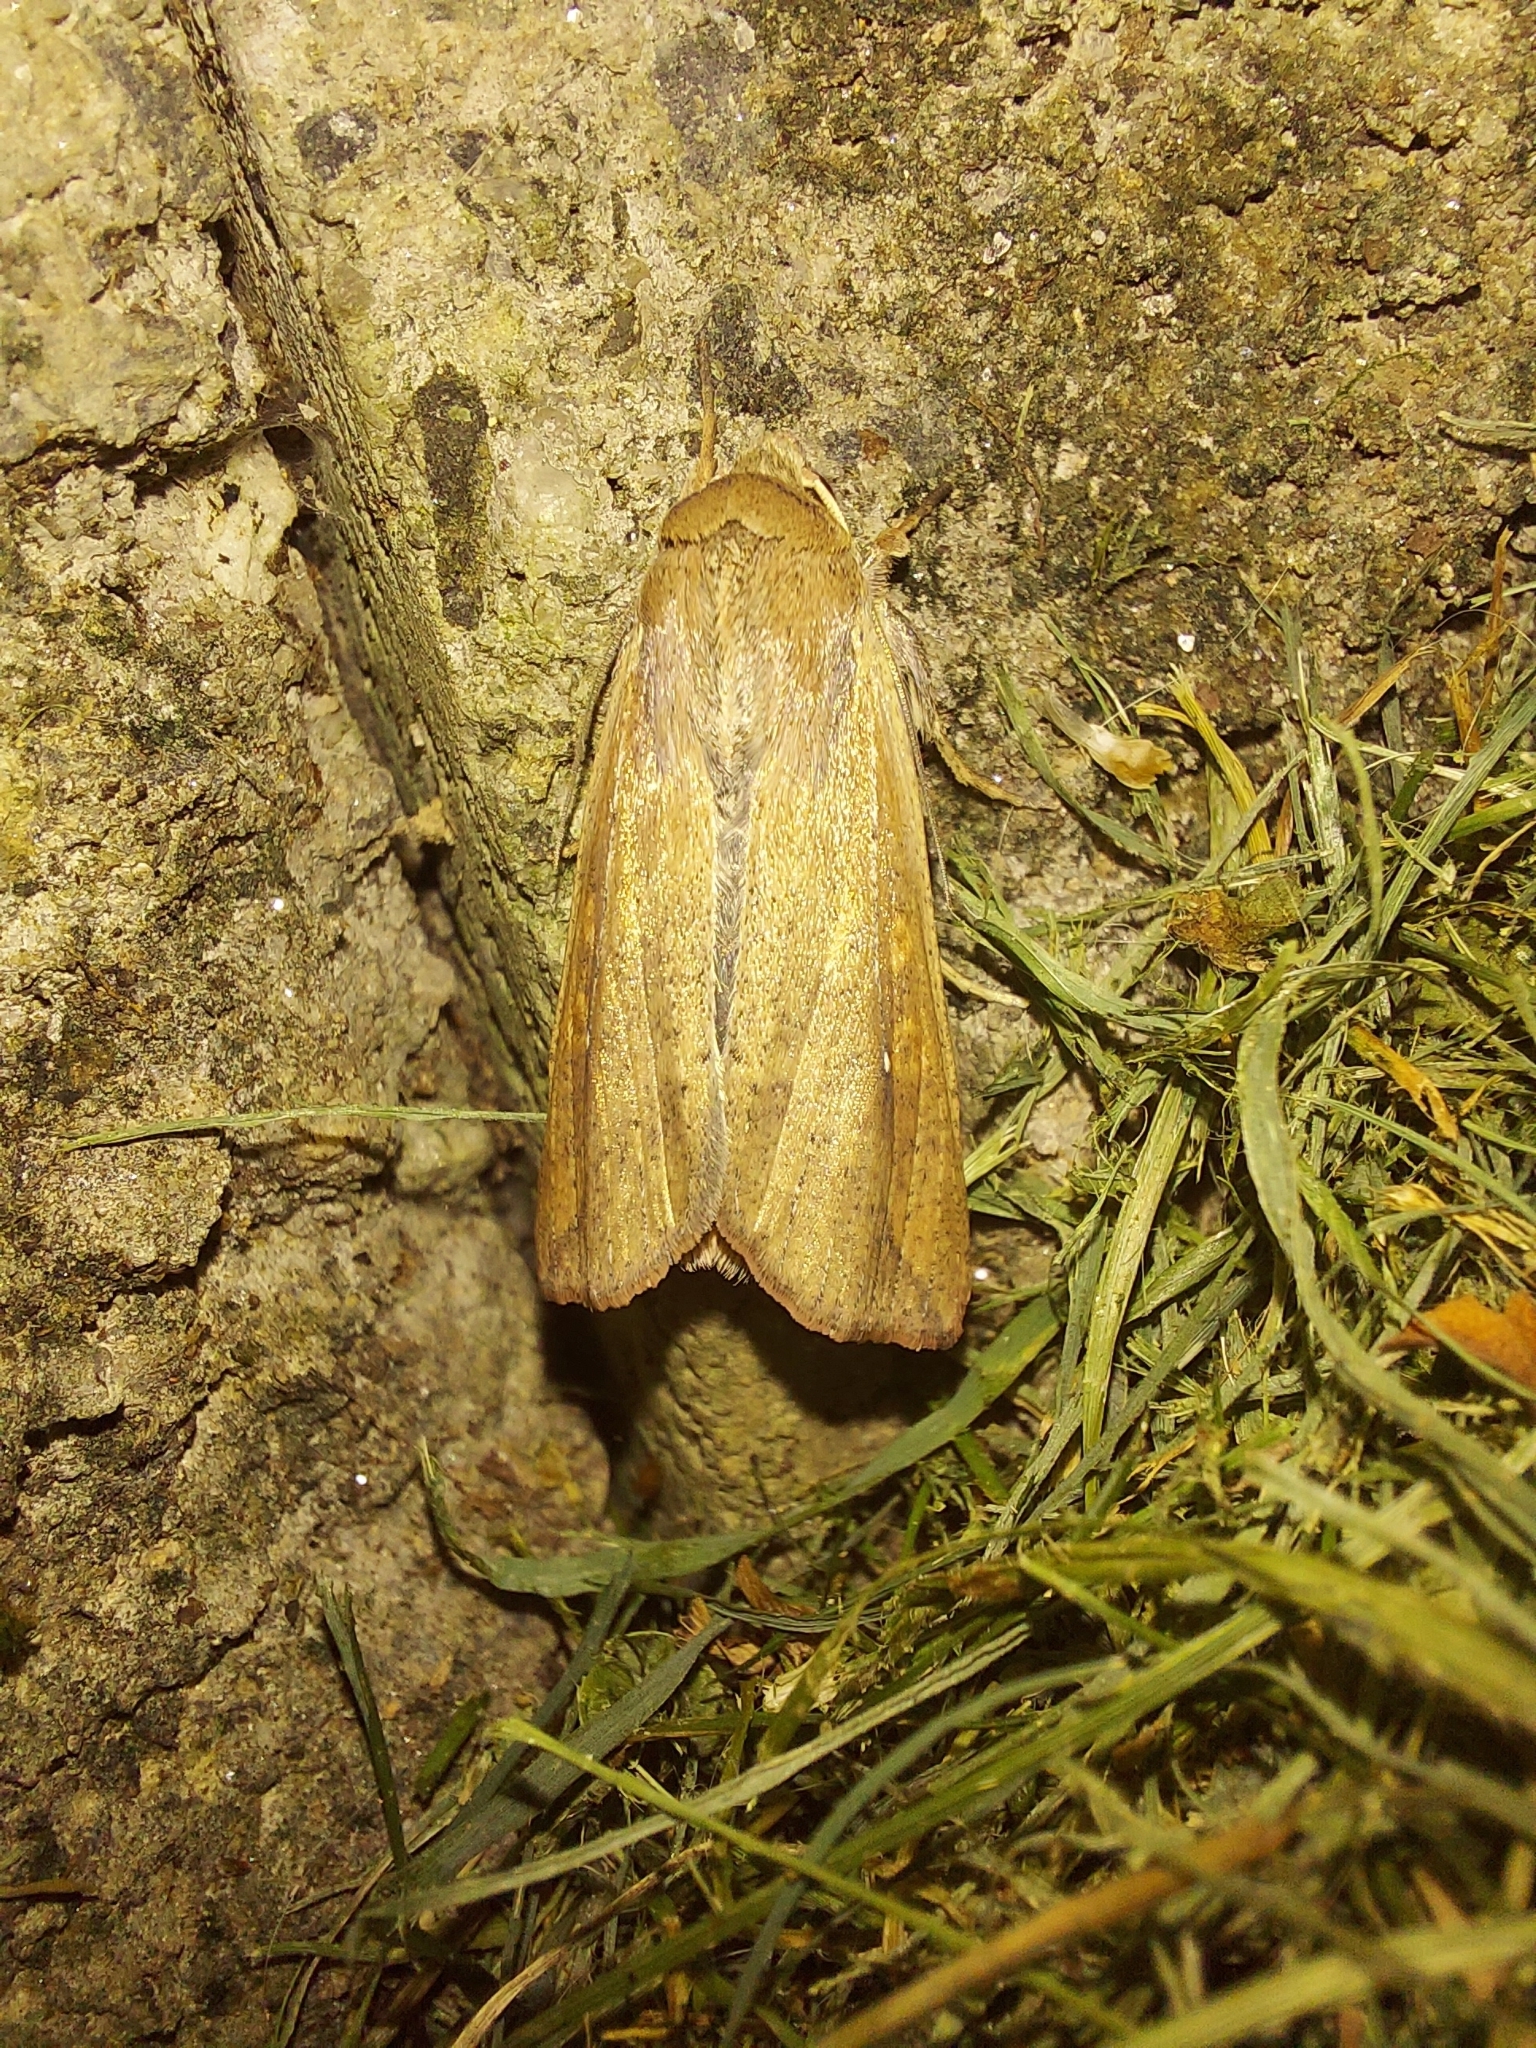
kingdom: Animalia
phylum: Arthropoda
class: Insecta
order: Lepidoptera
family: Noctuidae
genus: Mythimna
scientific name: Mythimna unipuncta
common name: White-speck
